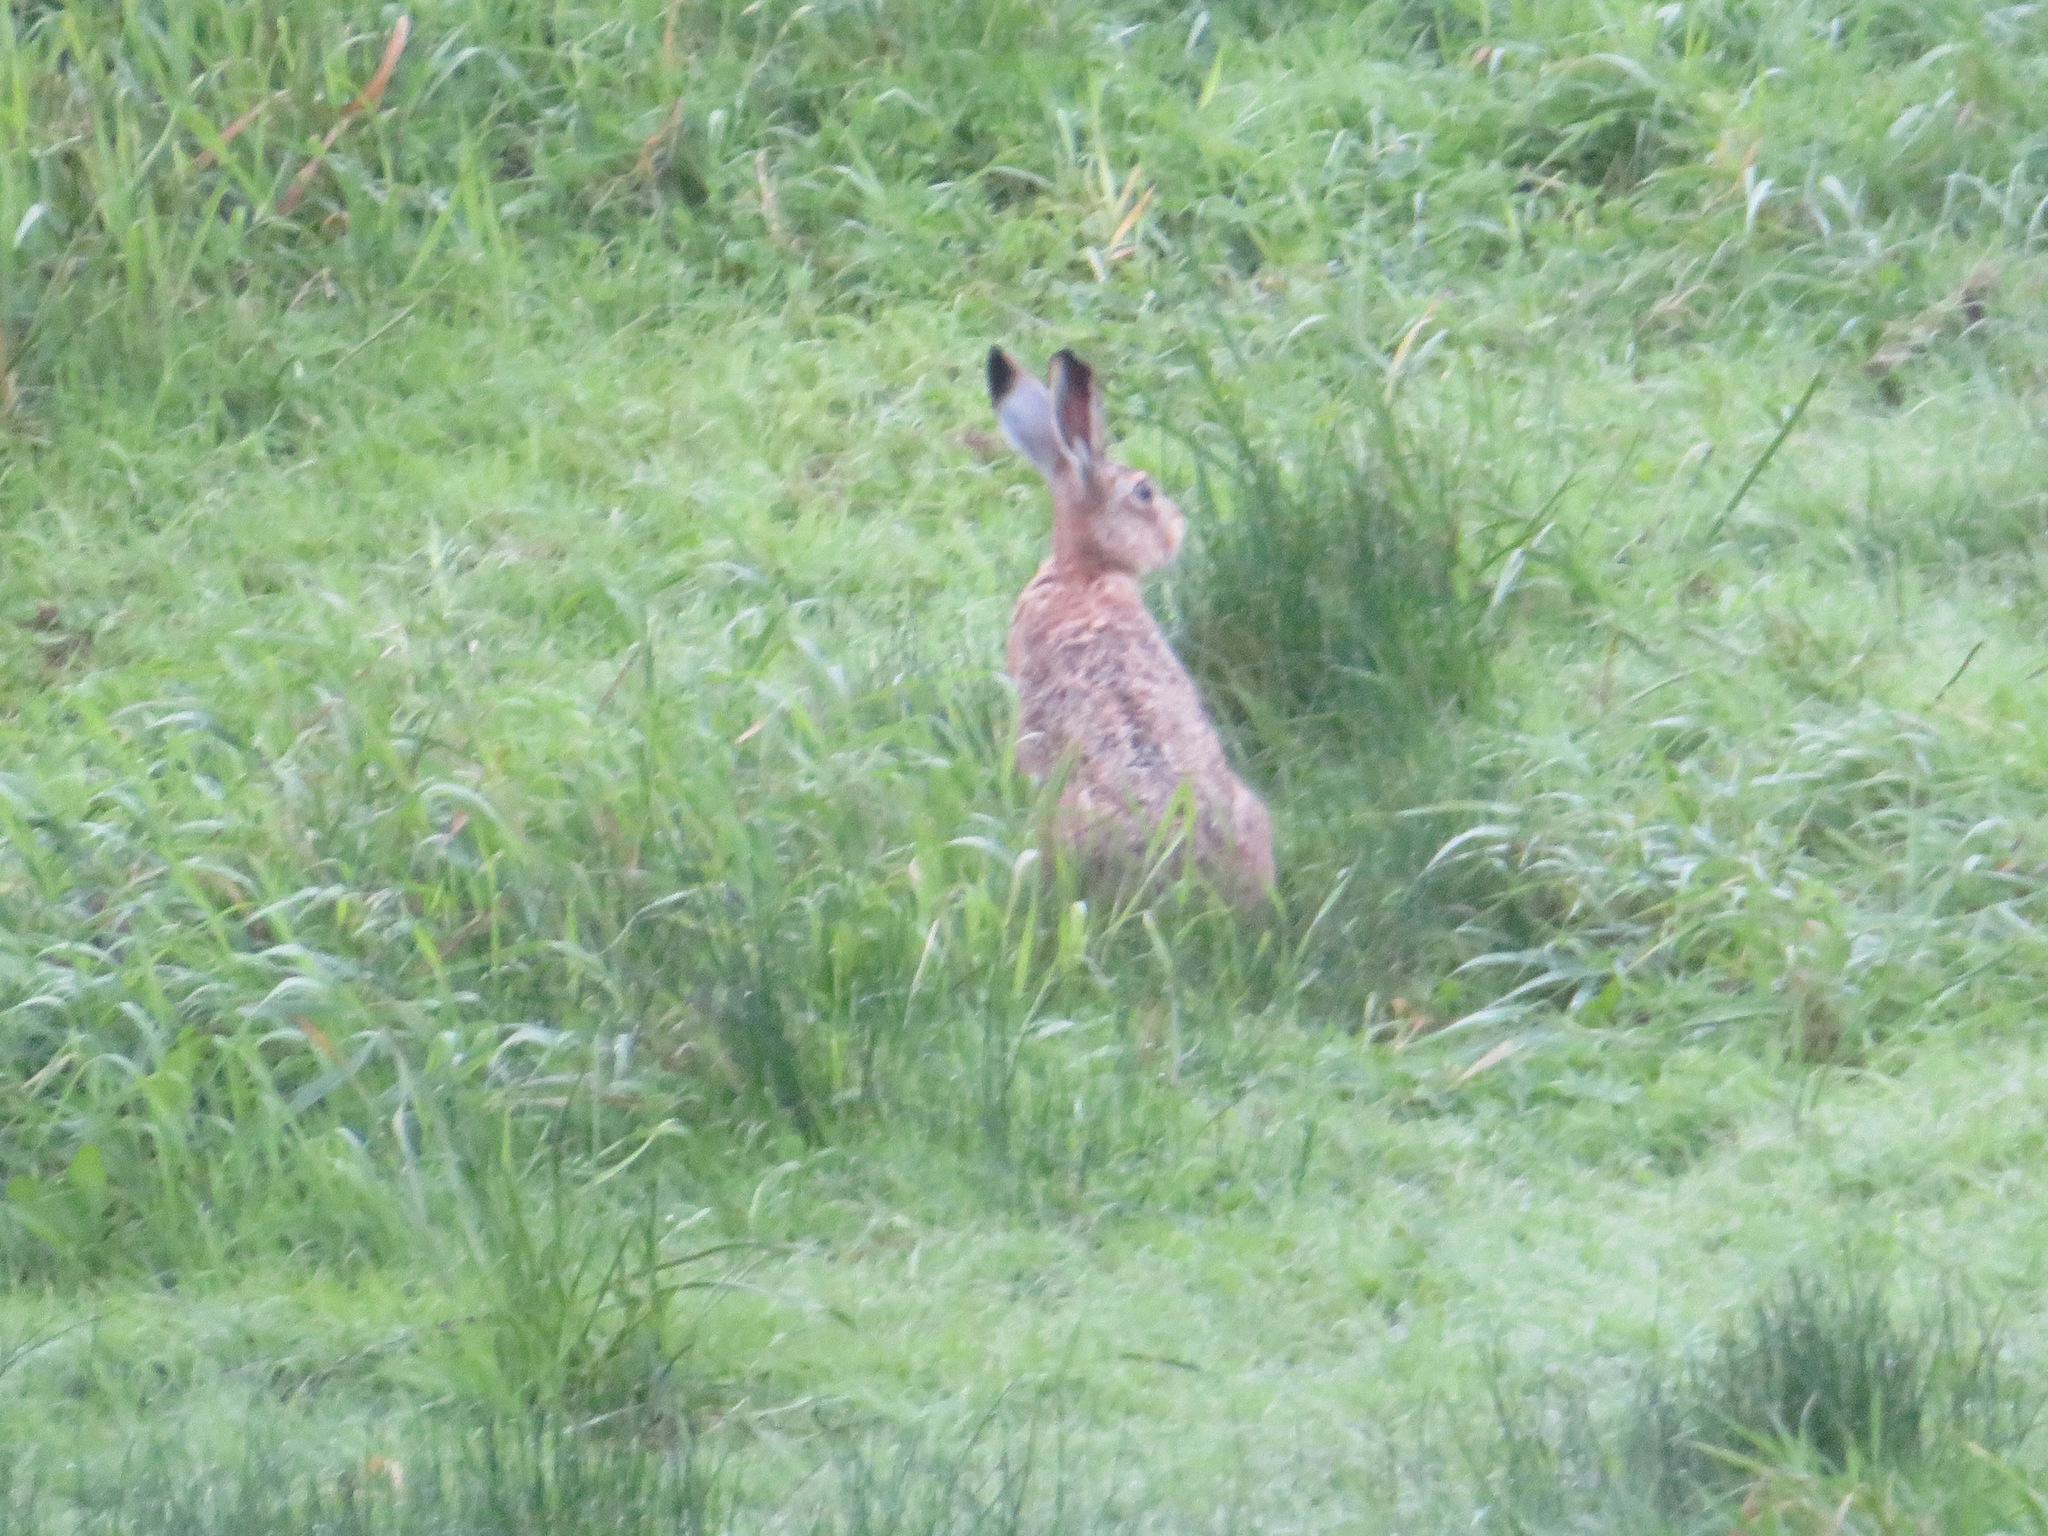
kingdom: Animalia
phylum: Chordata
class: Mammalia
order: Lagomorpha
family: Leporidae
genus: Lepus
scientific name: Lepus europaeus
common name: European hare
